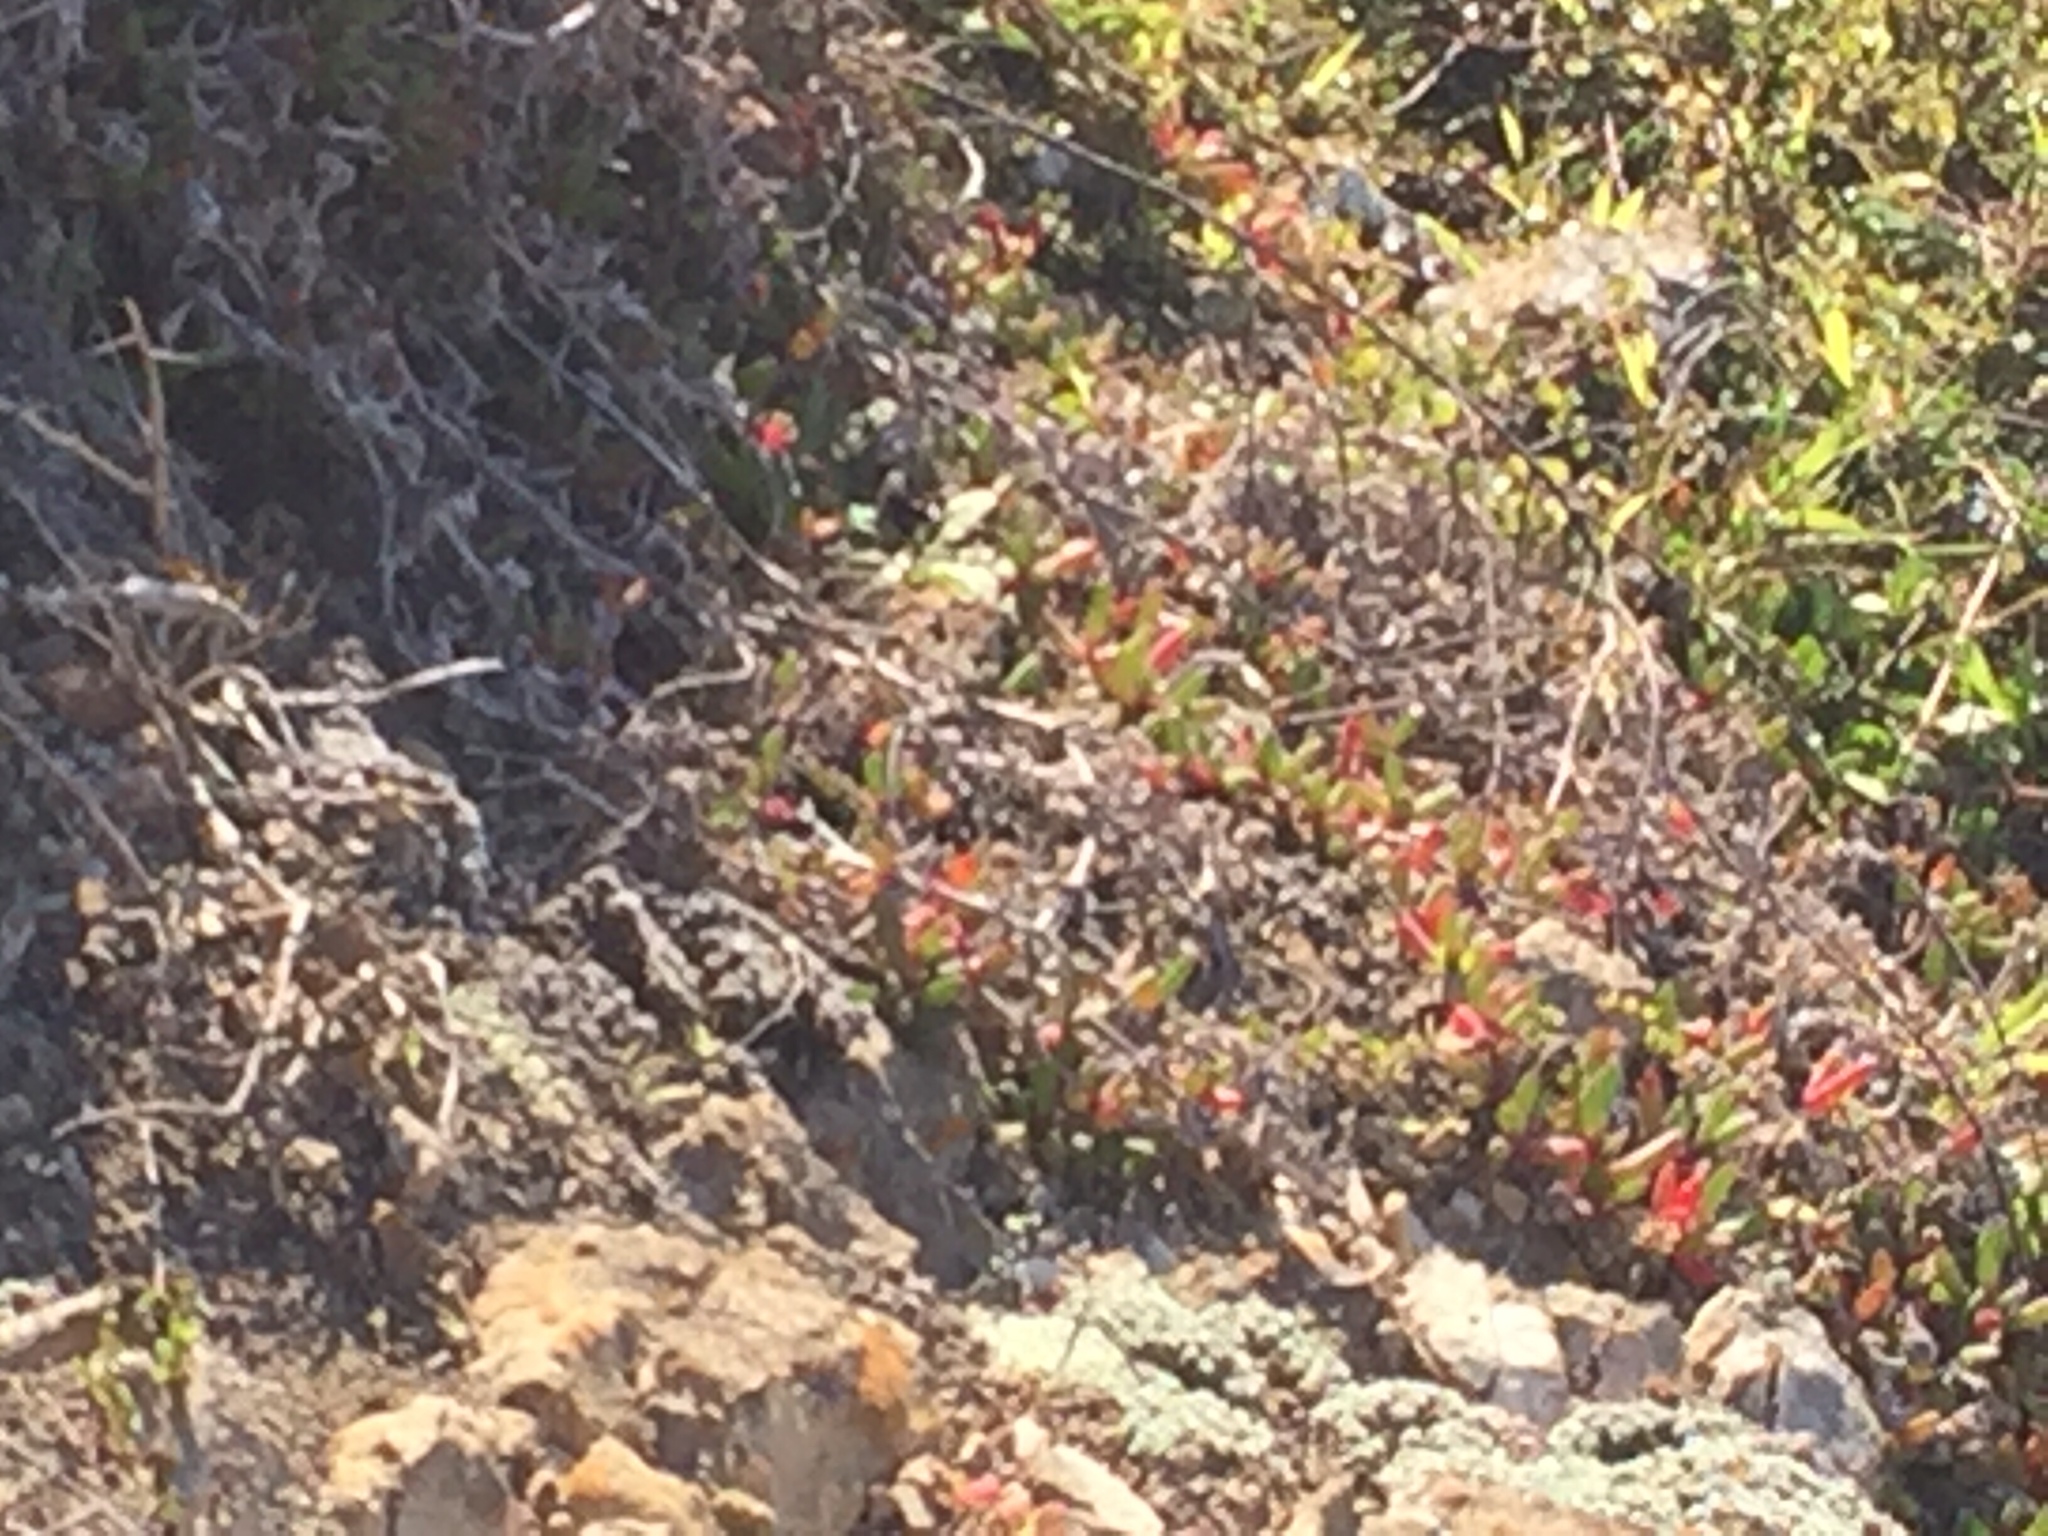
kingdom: Plantae
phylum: Tracheophyta
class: Magnoliopsida
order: Caryophyllales
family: Aizoaceae
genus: Disphyma
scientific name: Disphyma australe
